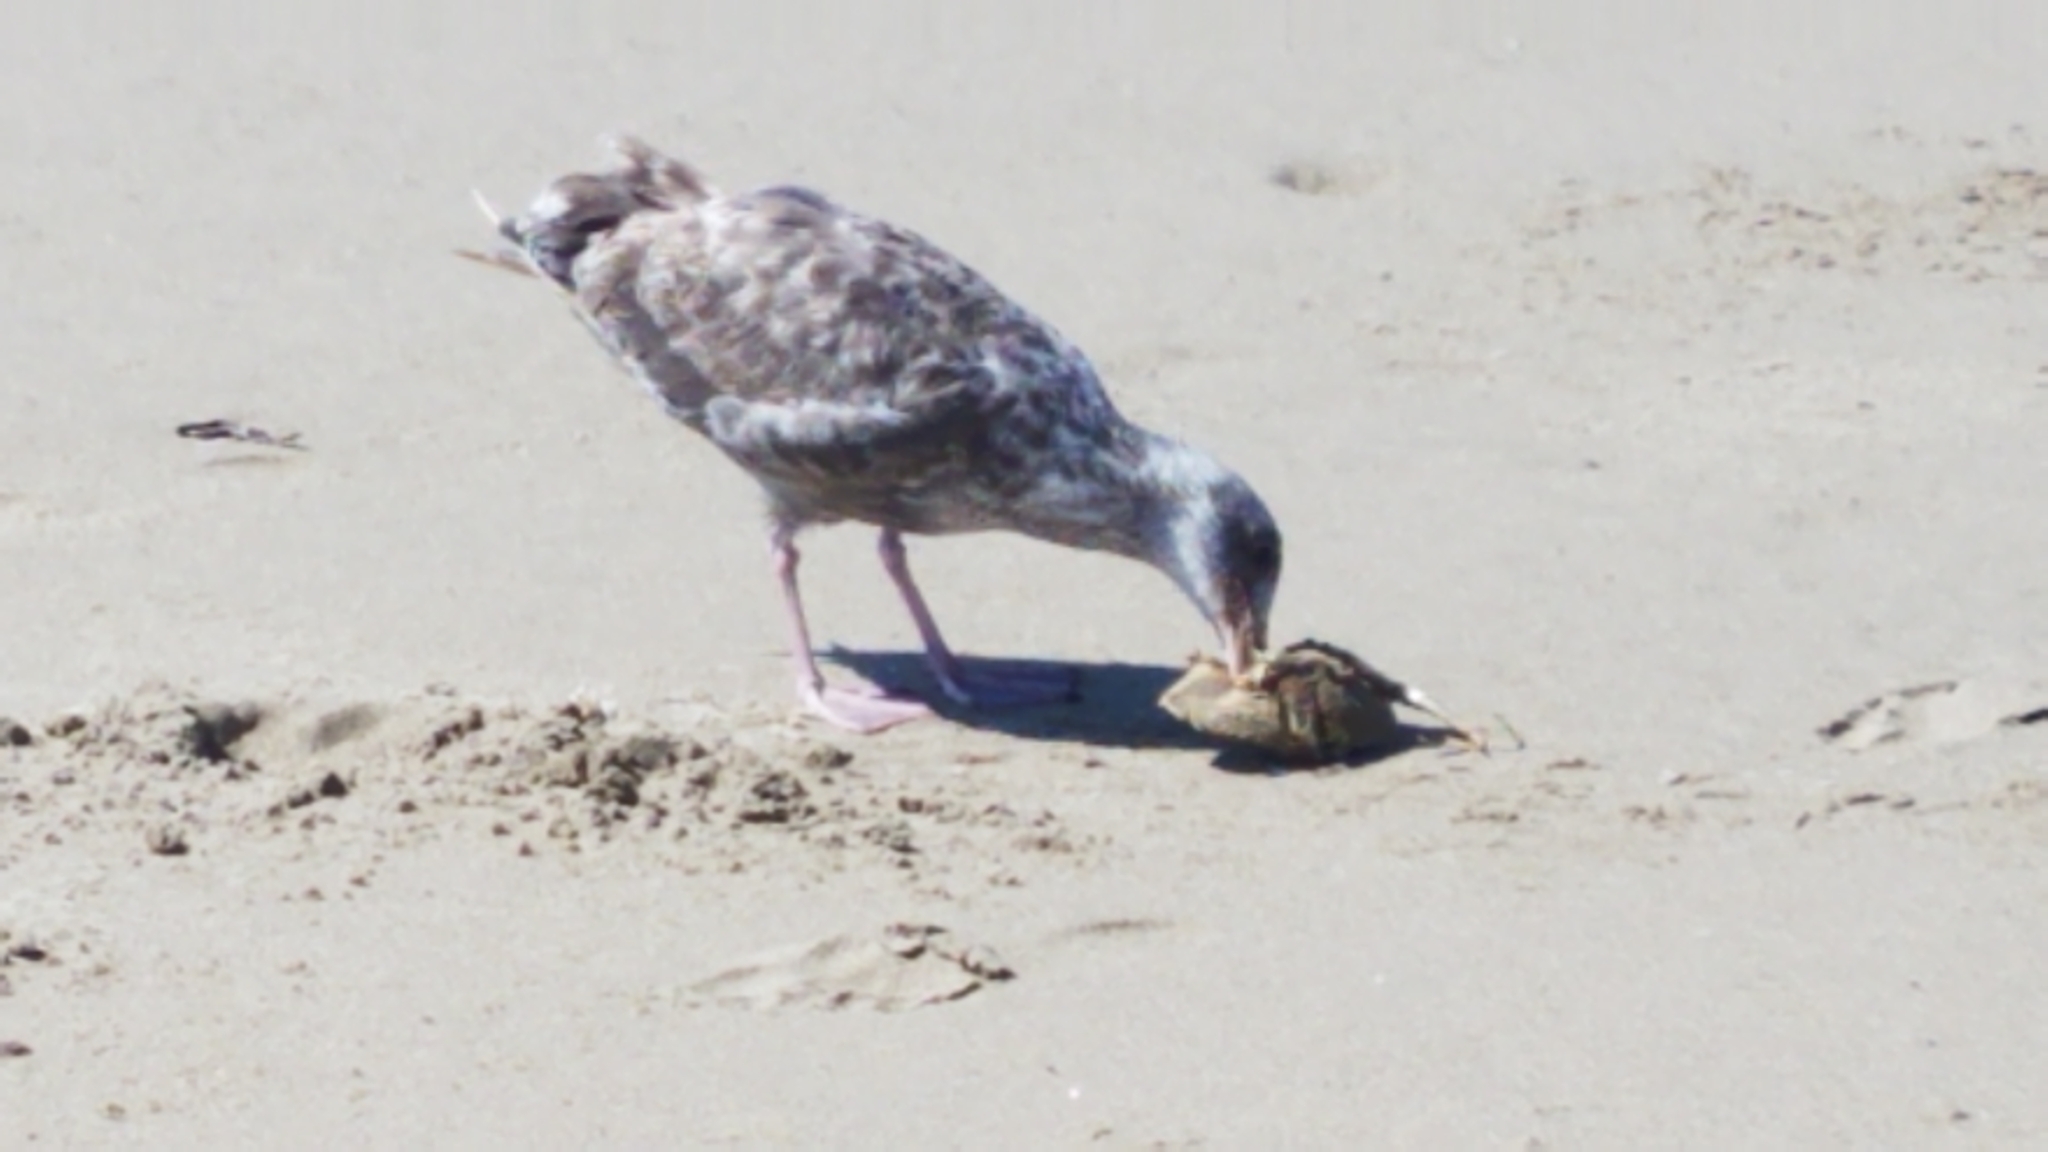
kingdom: Animalia
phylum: Chordata
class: Aves
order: Charadriiformes
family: Laridae
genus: Larus
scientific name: Larus occidentalis
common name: Western gull
